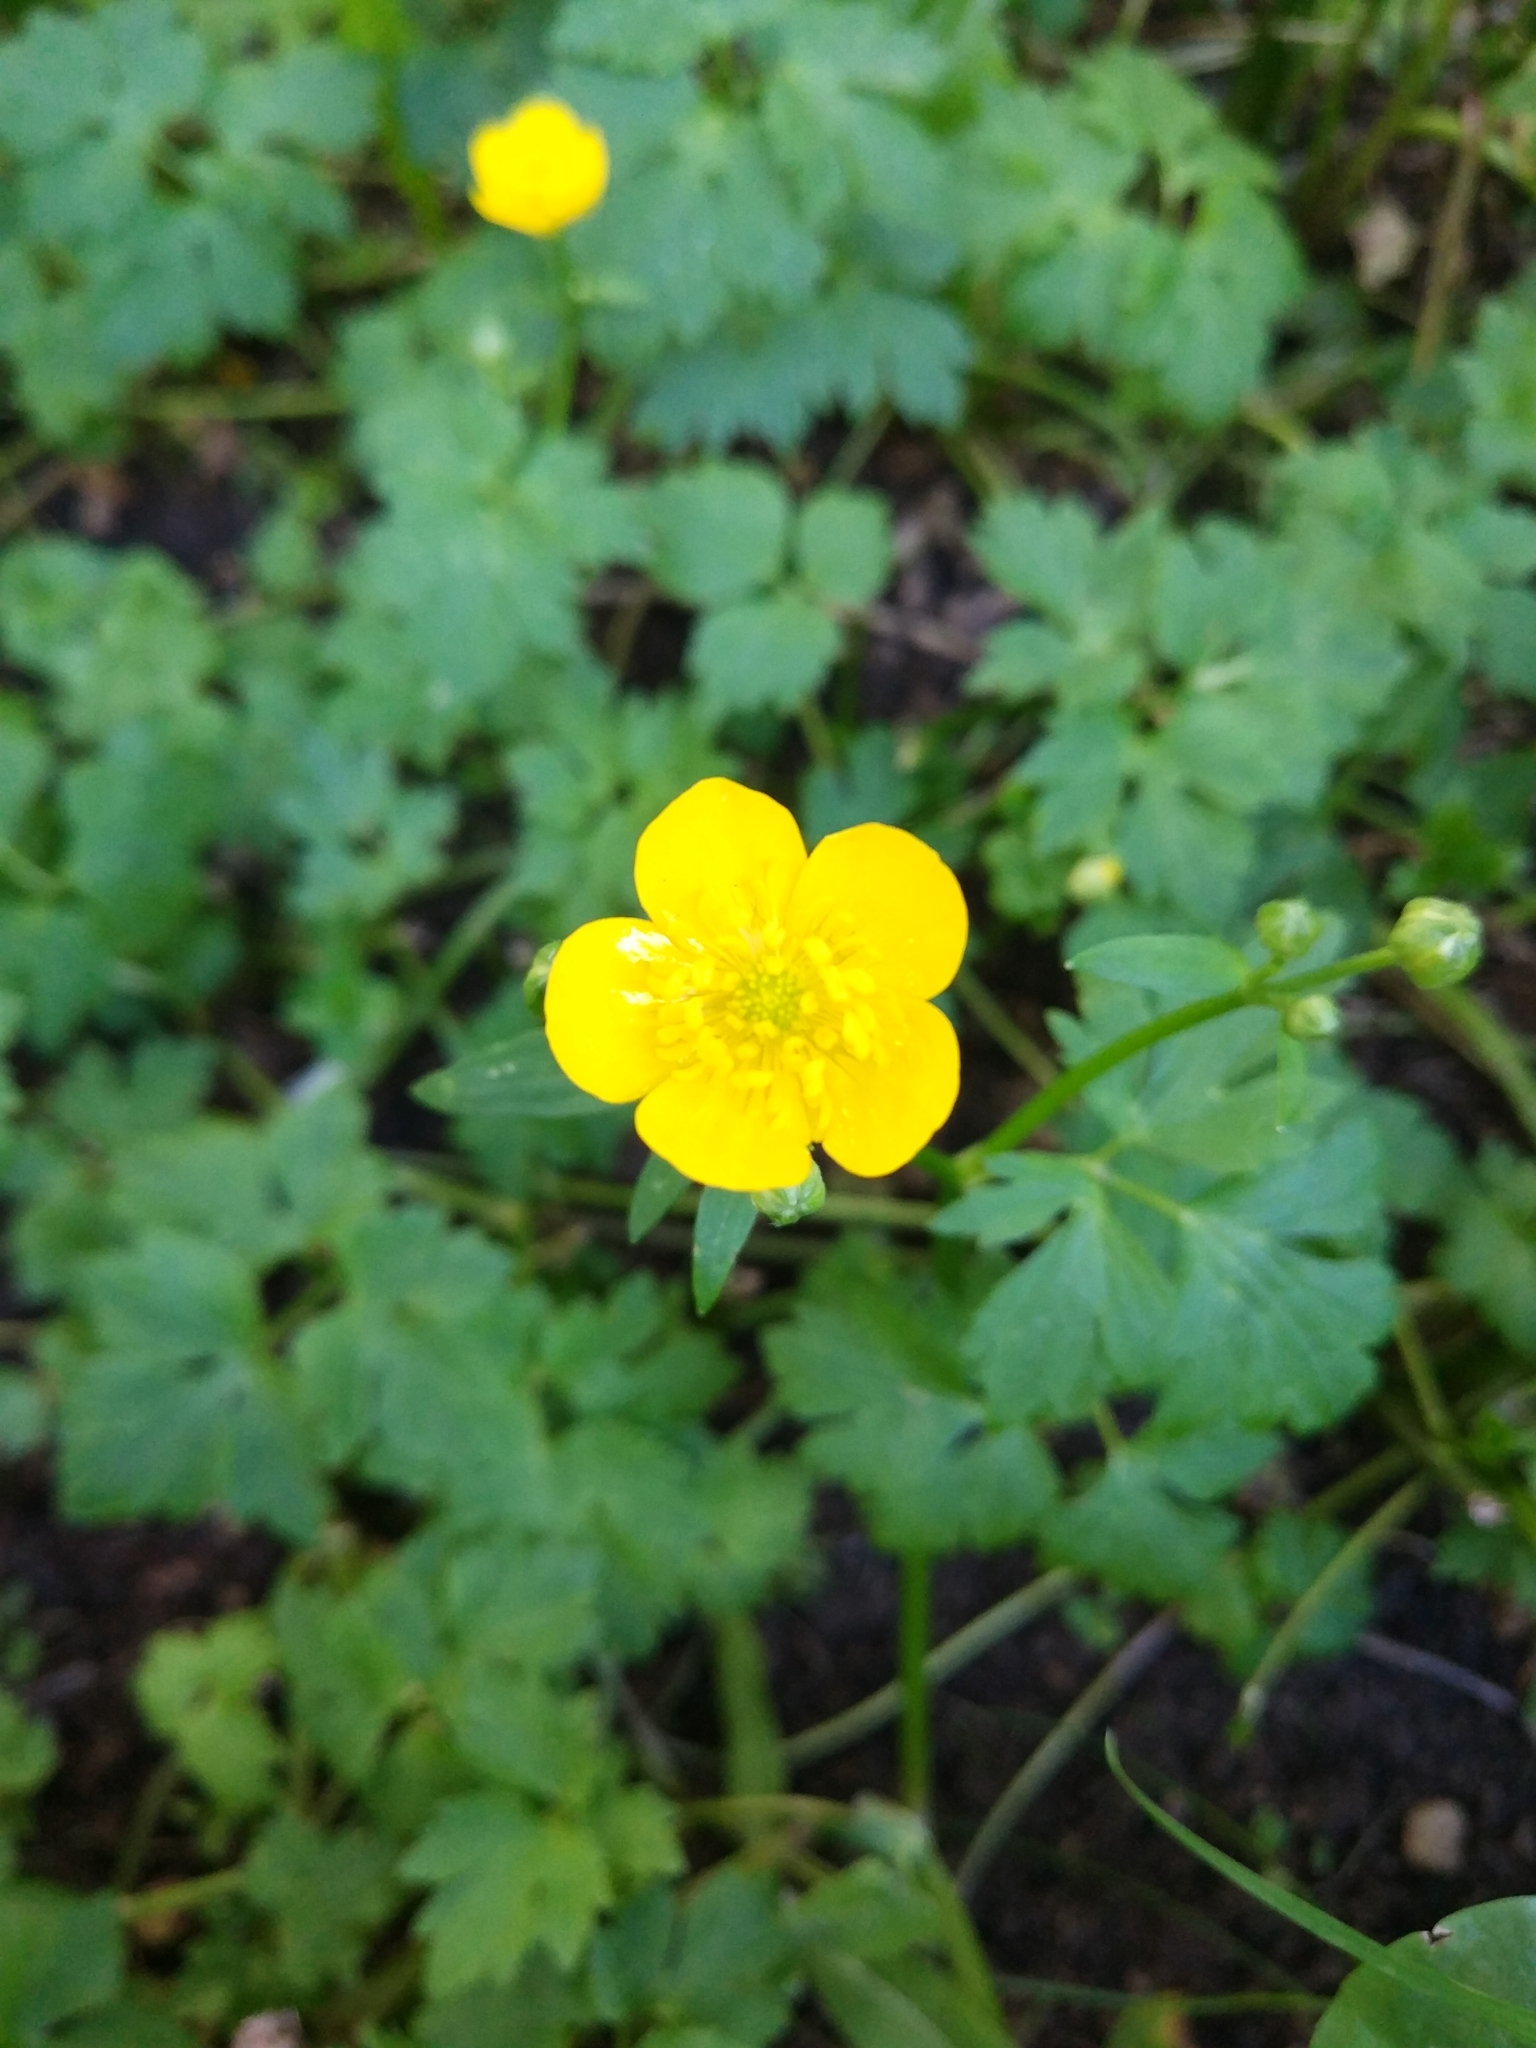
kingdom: Plantae
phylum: Tracheophyta
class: Magnoliopsida
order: Ranunculales
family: Ranunculaceae
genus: Ranunculus
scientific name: Ranunculus repens
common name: Creeping buttercup
